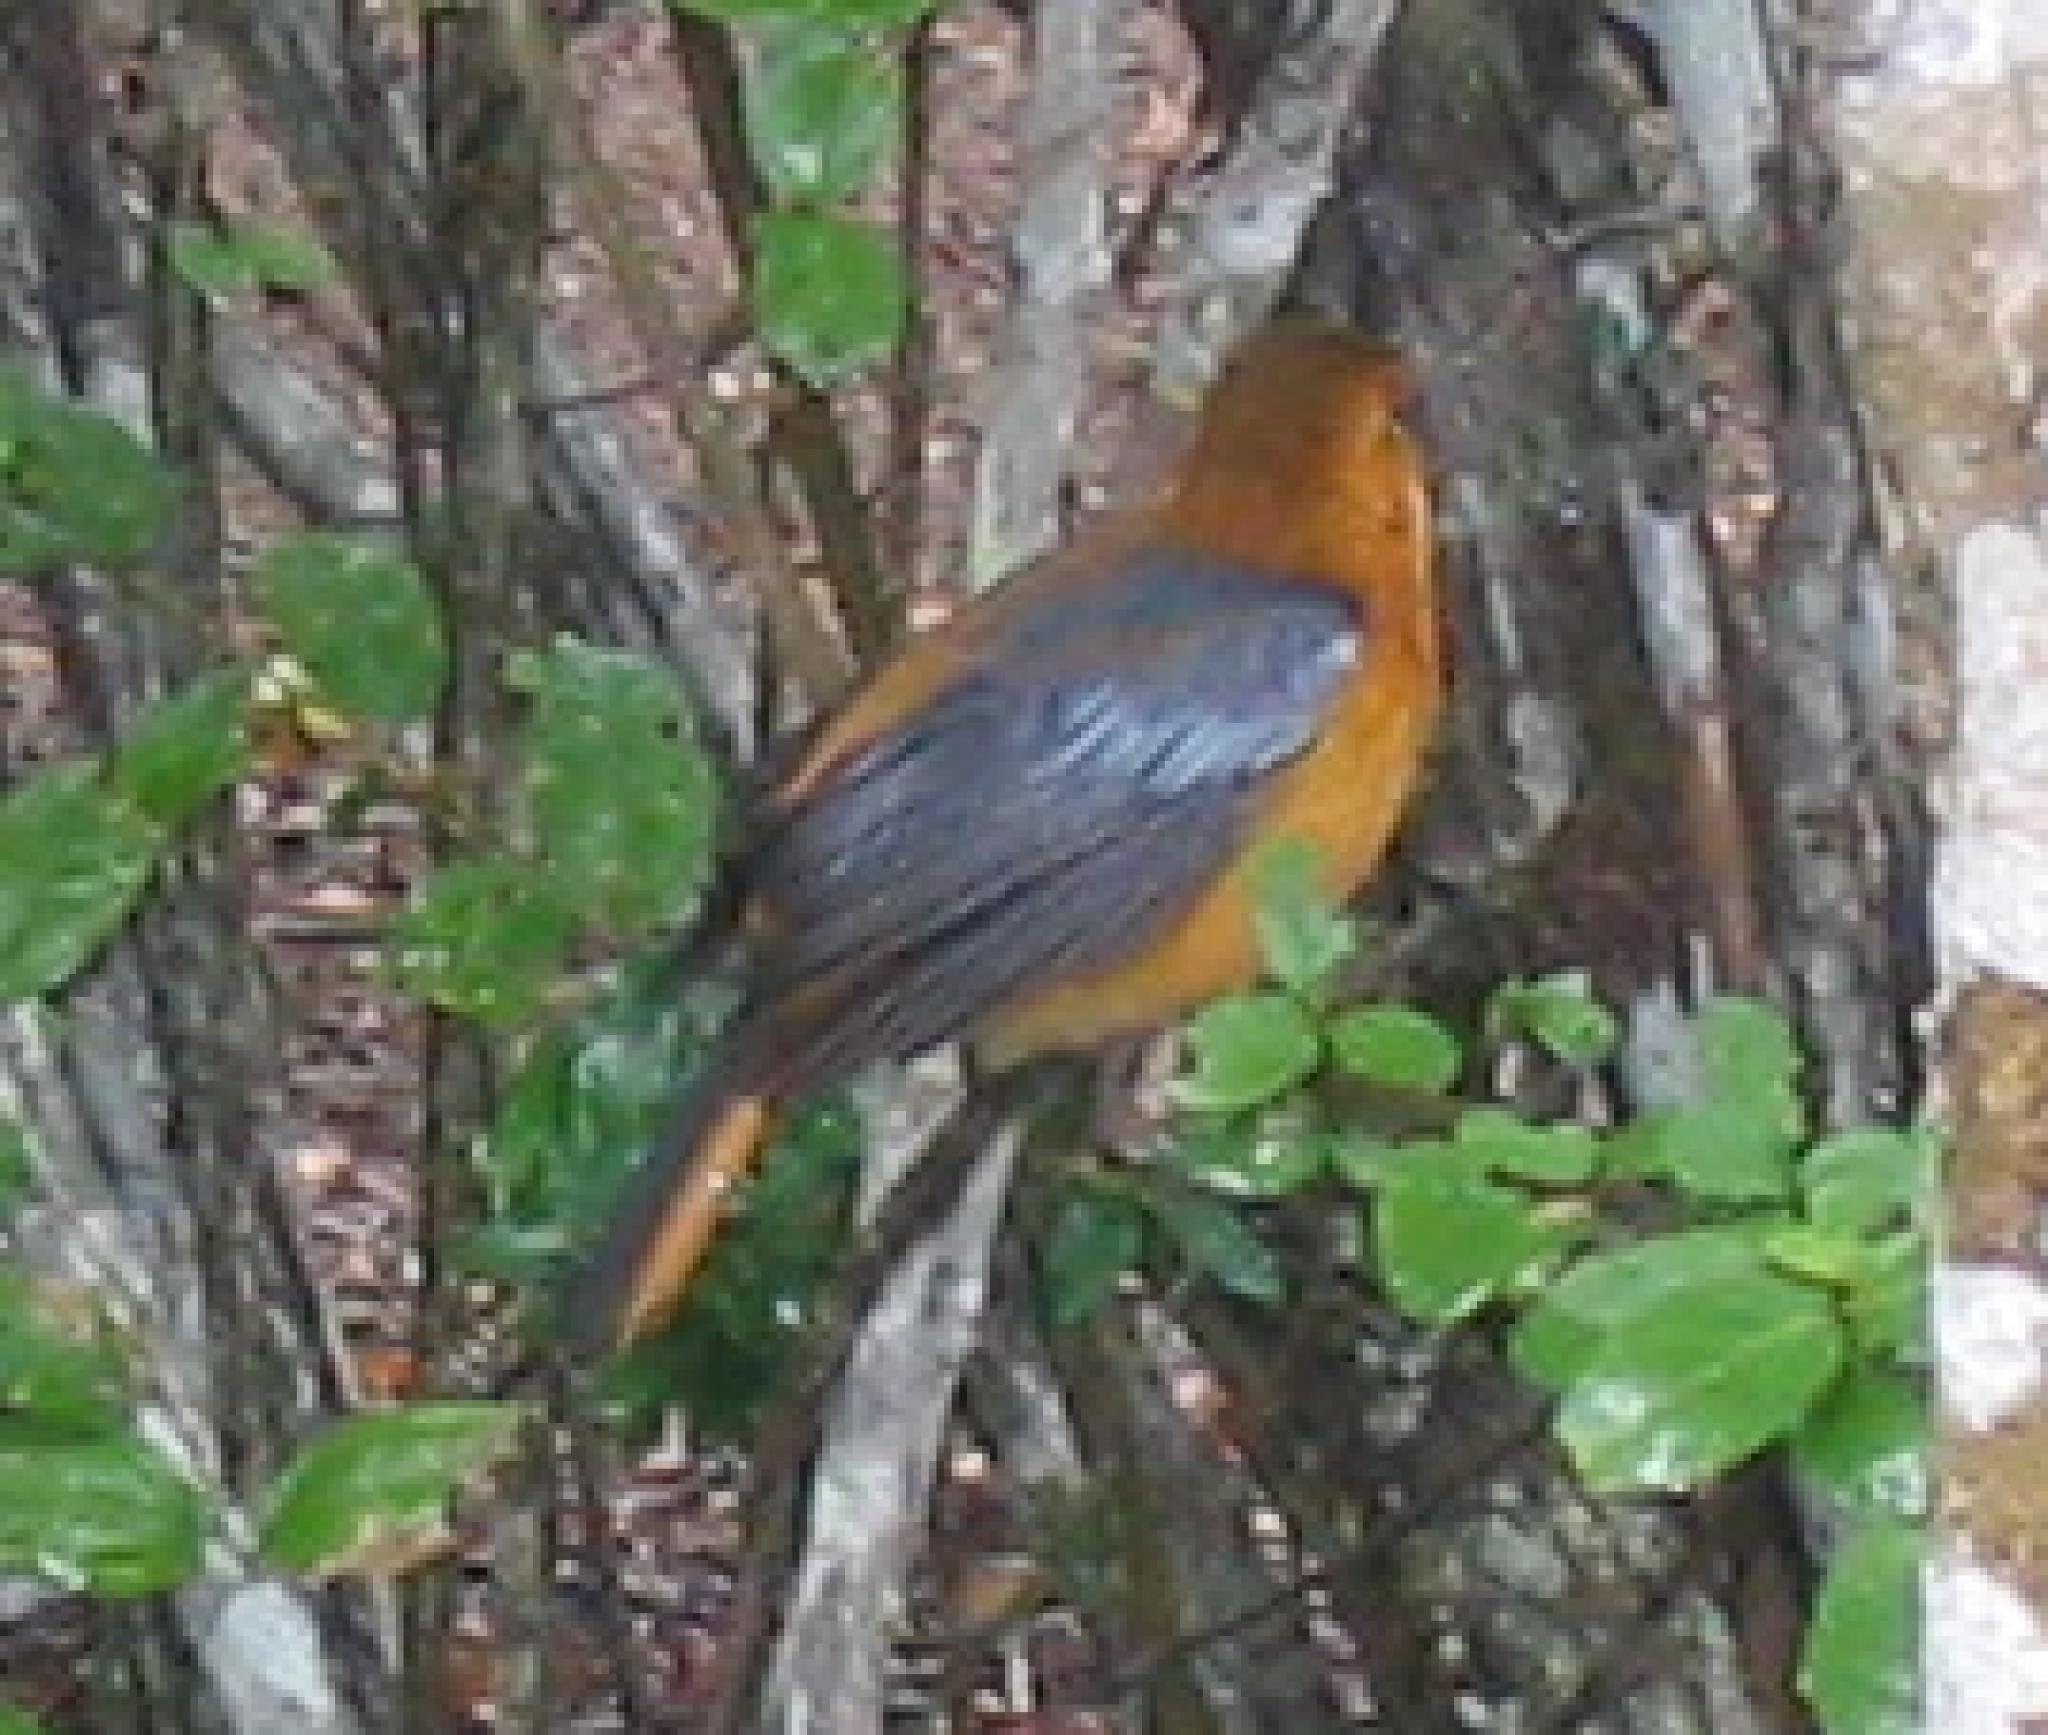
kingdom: Animalia
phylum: Chordata
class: Aves
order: Passeriformes
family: Muscicapidae
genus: Cossypha
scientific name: Cossypha natalensis
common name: Red-capped robin-chat
